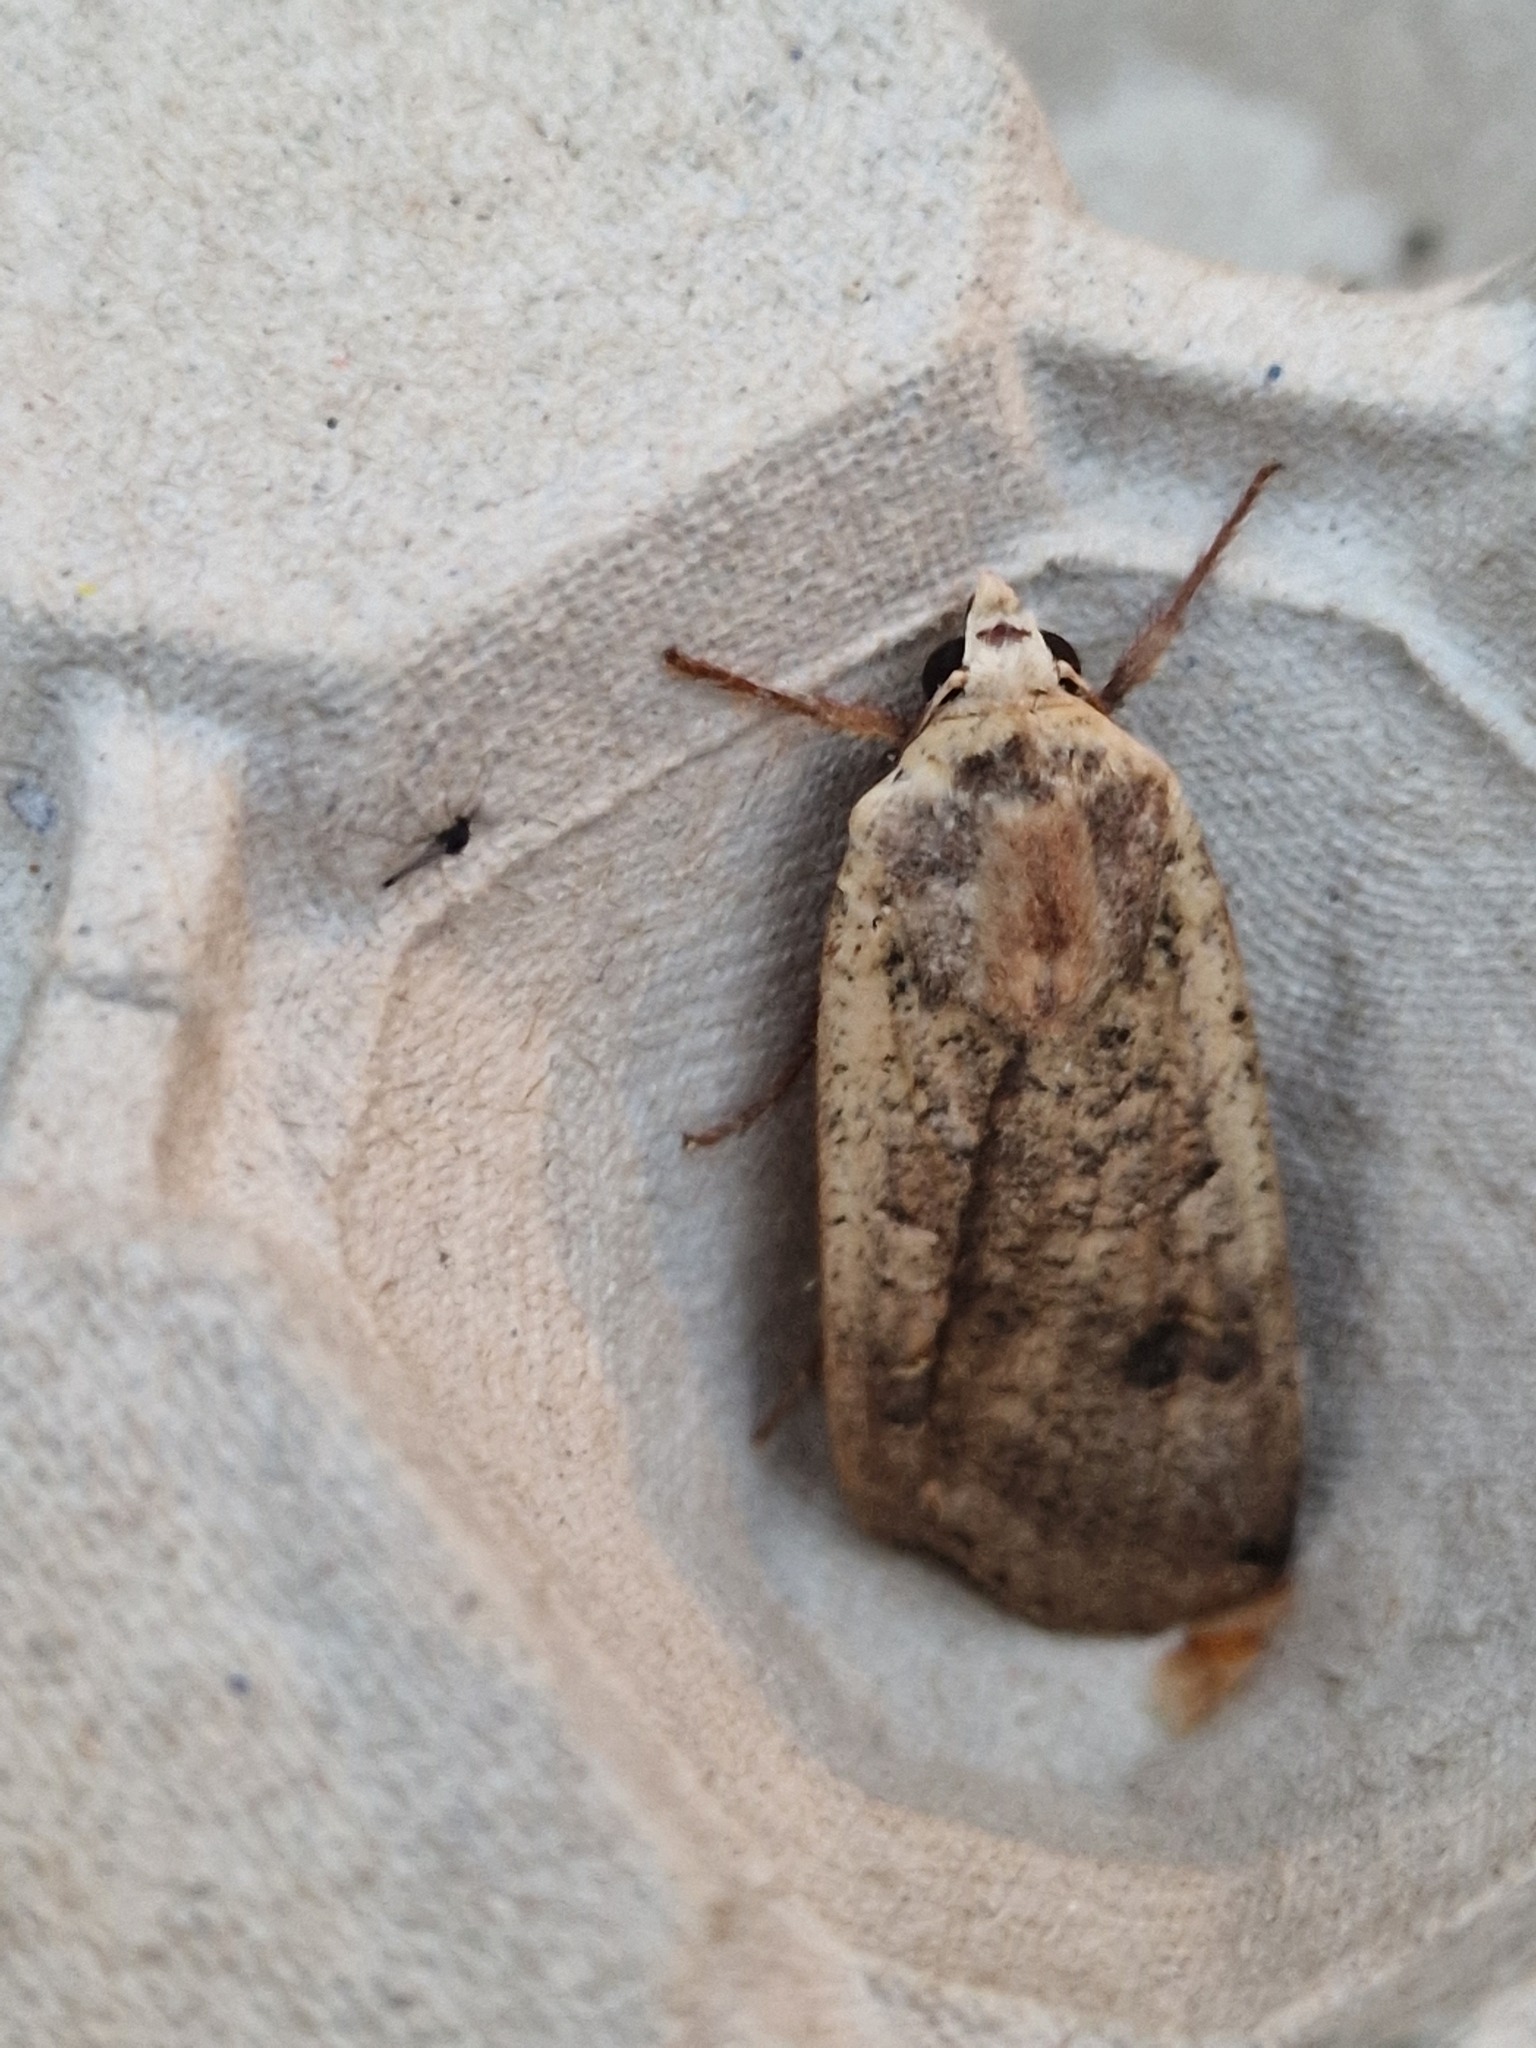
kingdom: Animalia
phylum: Arthropoda
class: Insecta
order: Lepidoptera
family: Noctuidae
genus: Noctua
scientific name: Noctua pronuba
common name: Large yellow underwing
